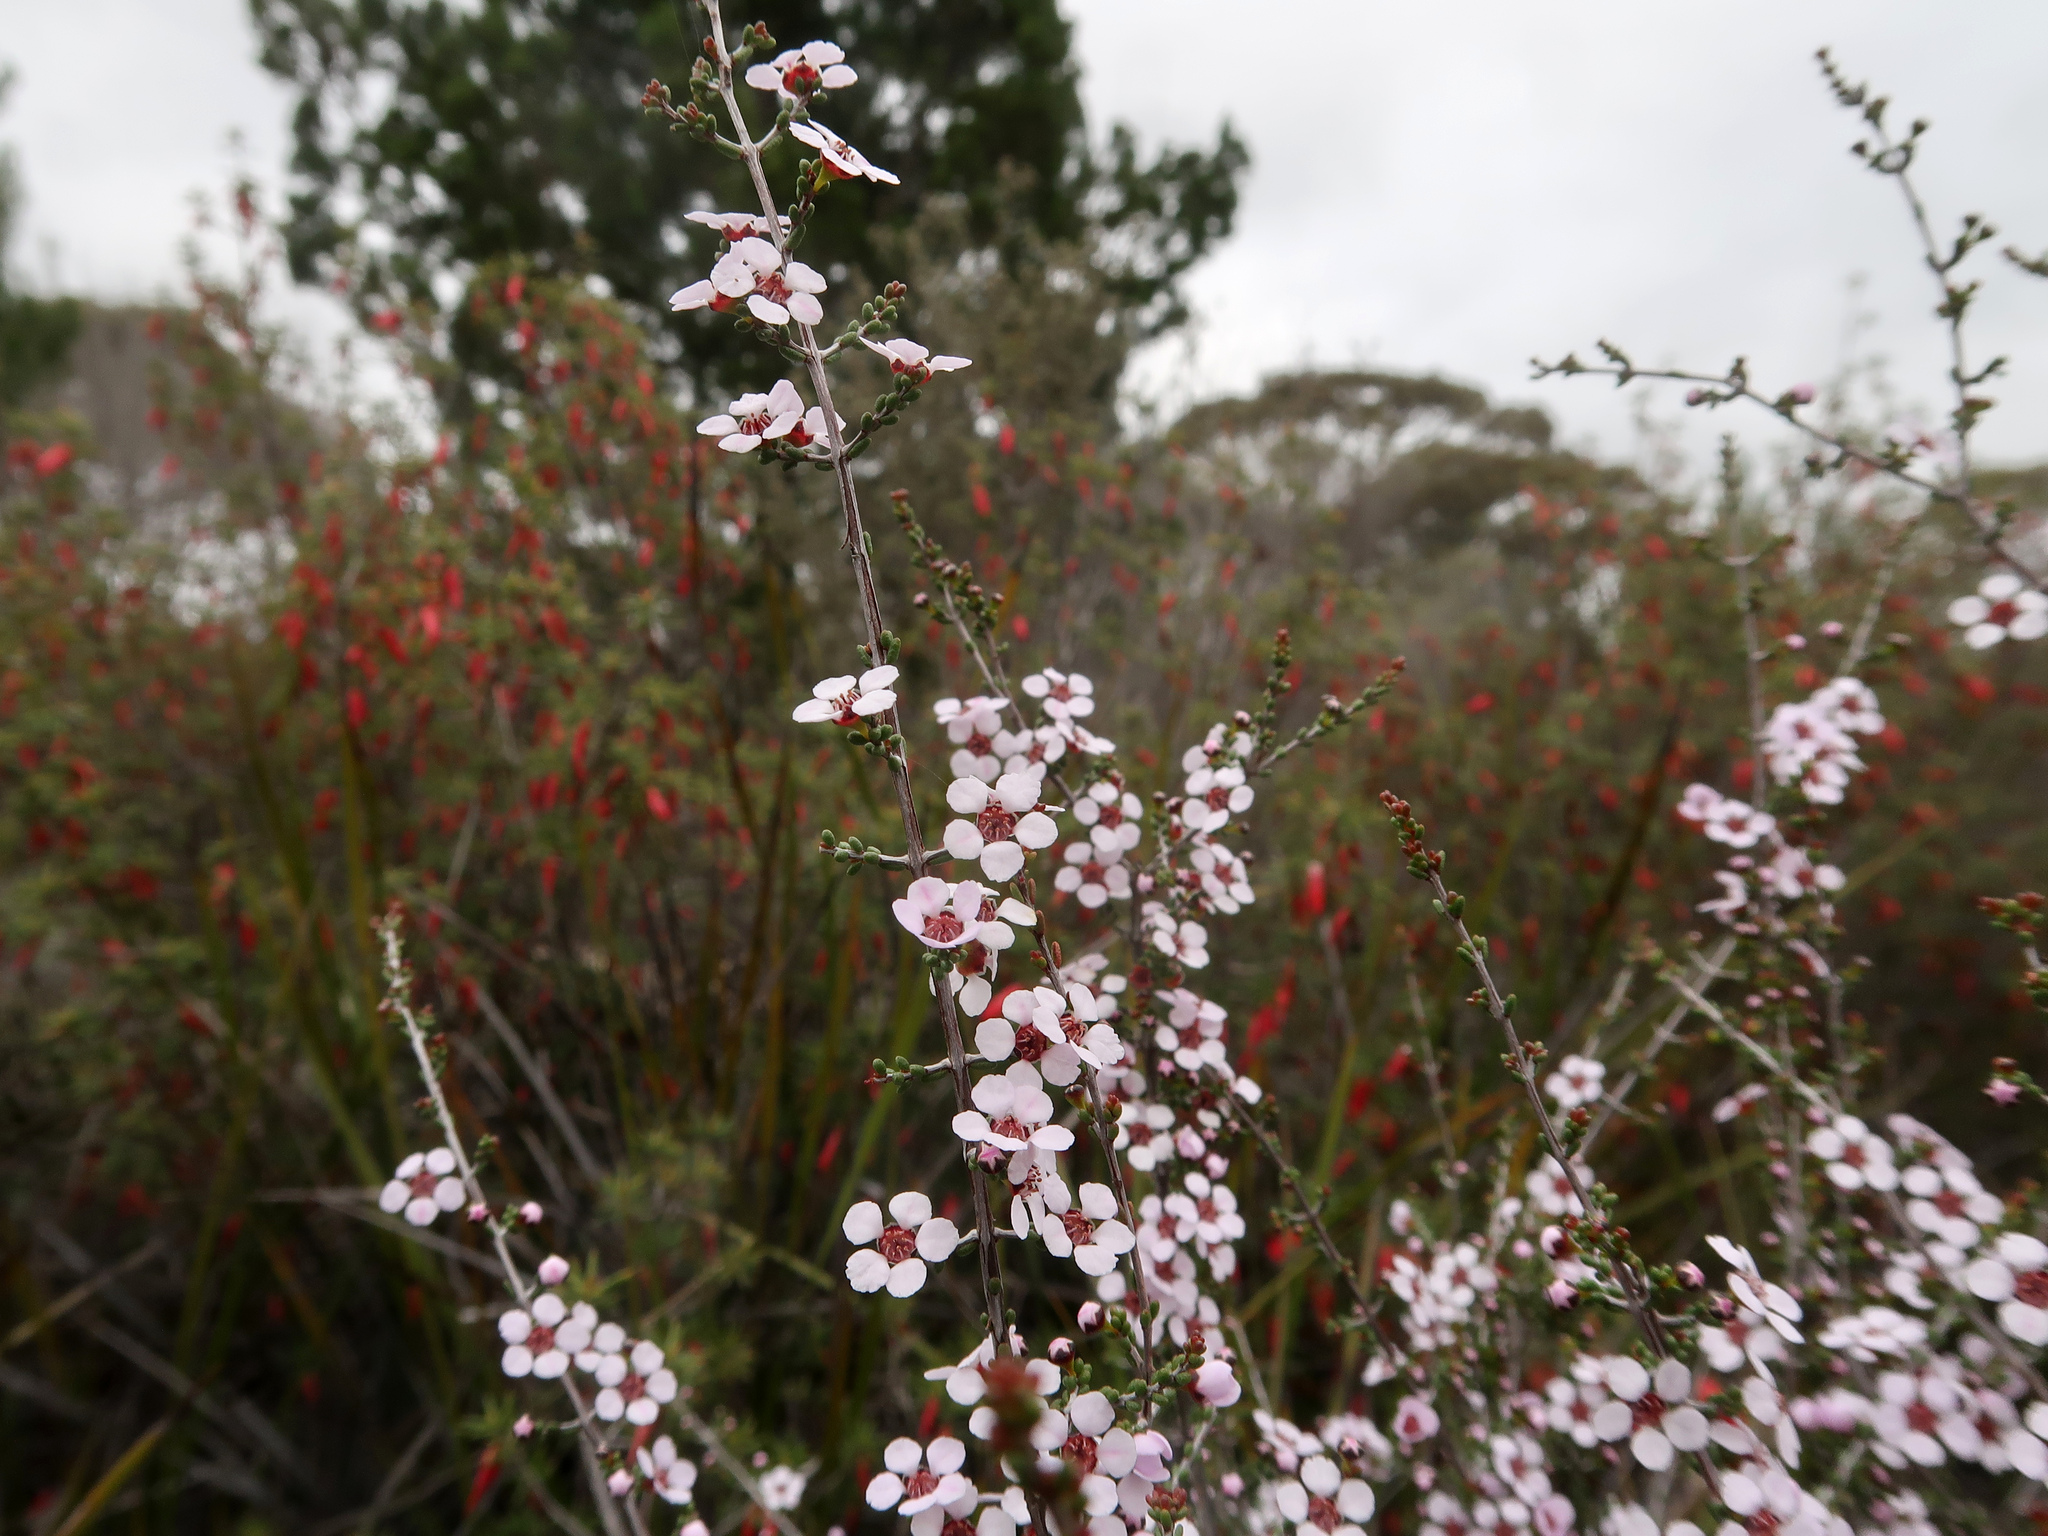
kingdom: Plantae
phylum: Tracheophyta
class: Magnoliopsida
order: Myrtales
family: Myrtaceae
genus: Rinzia
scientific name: Rinzia orientalis
